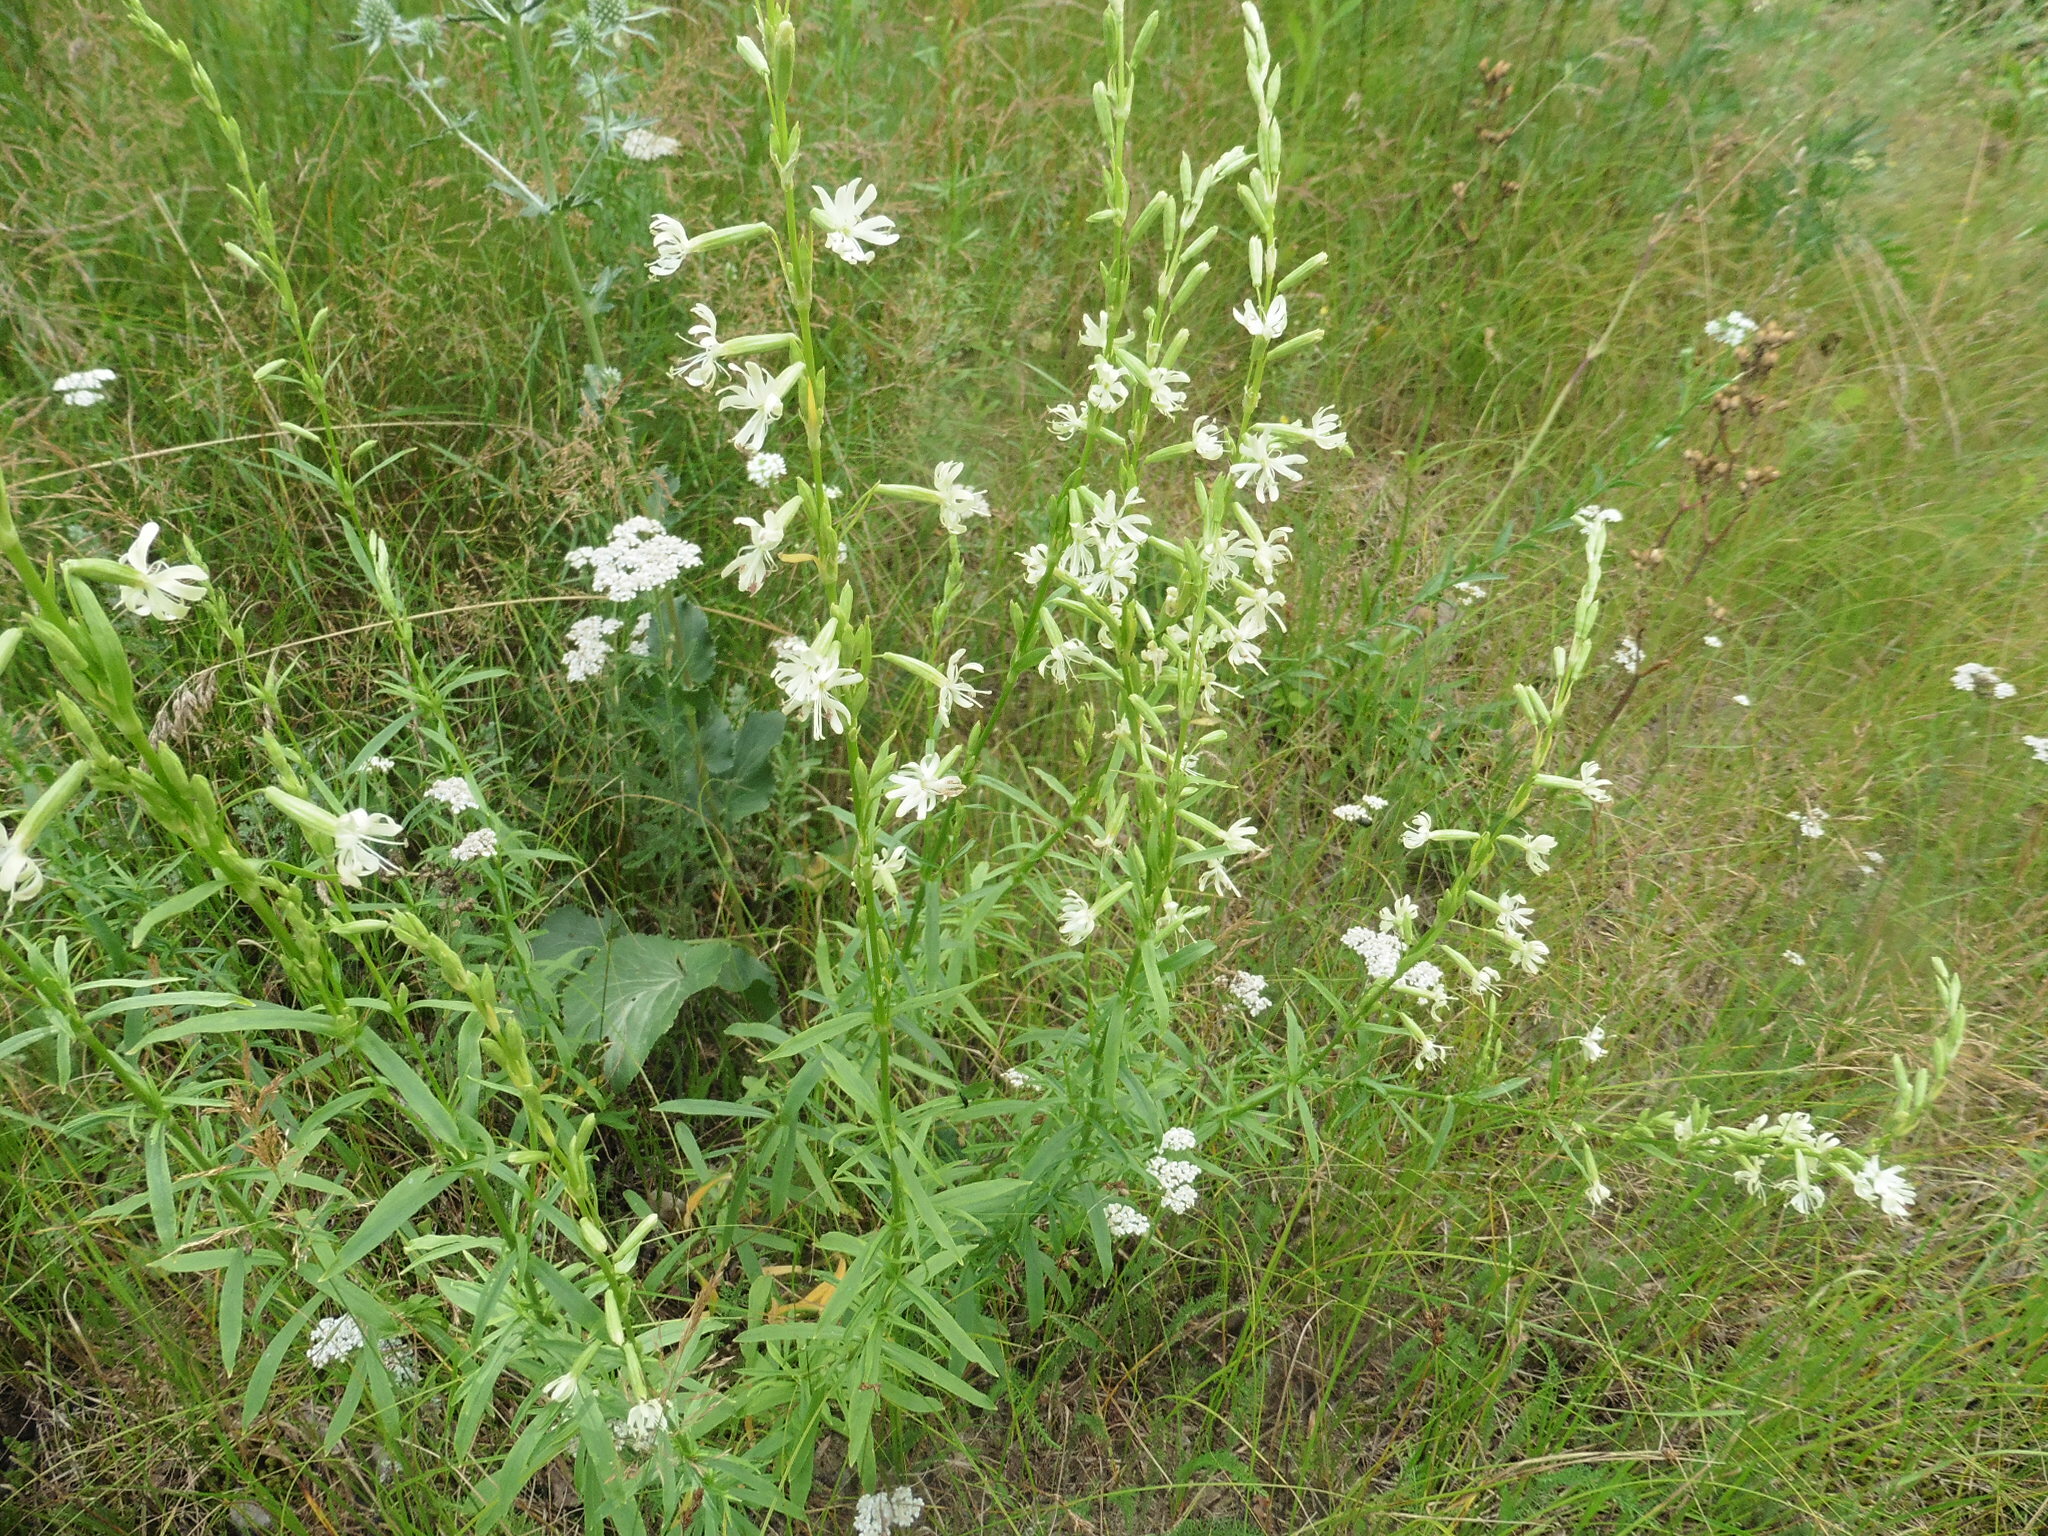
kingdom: Plantae
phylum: Tracheophyta
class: Magnoliopsida
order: Caryophyllales
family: Caryophyllaceae
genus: Silene
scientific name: Silene tatarica
